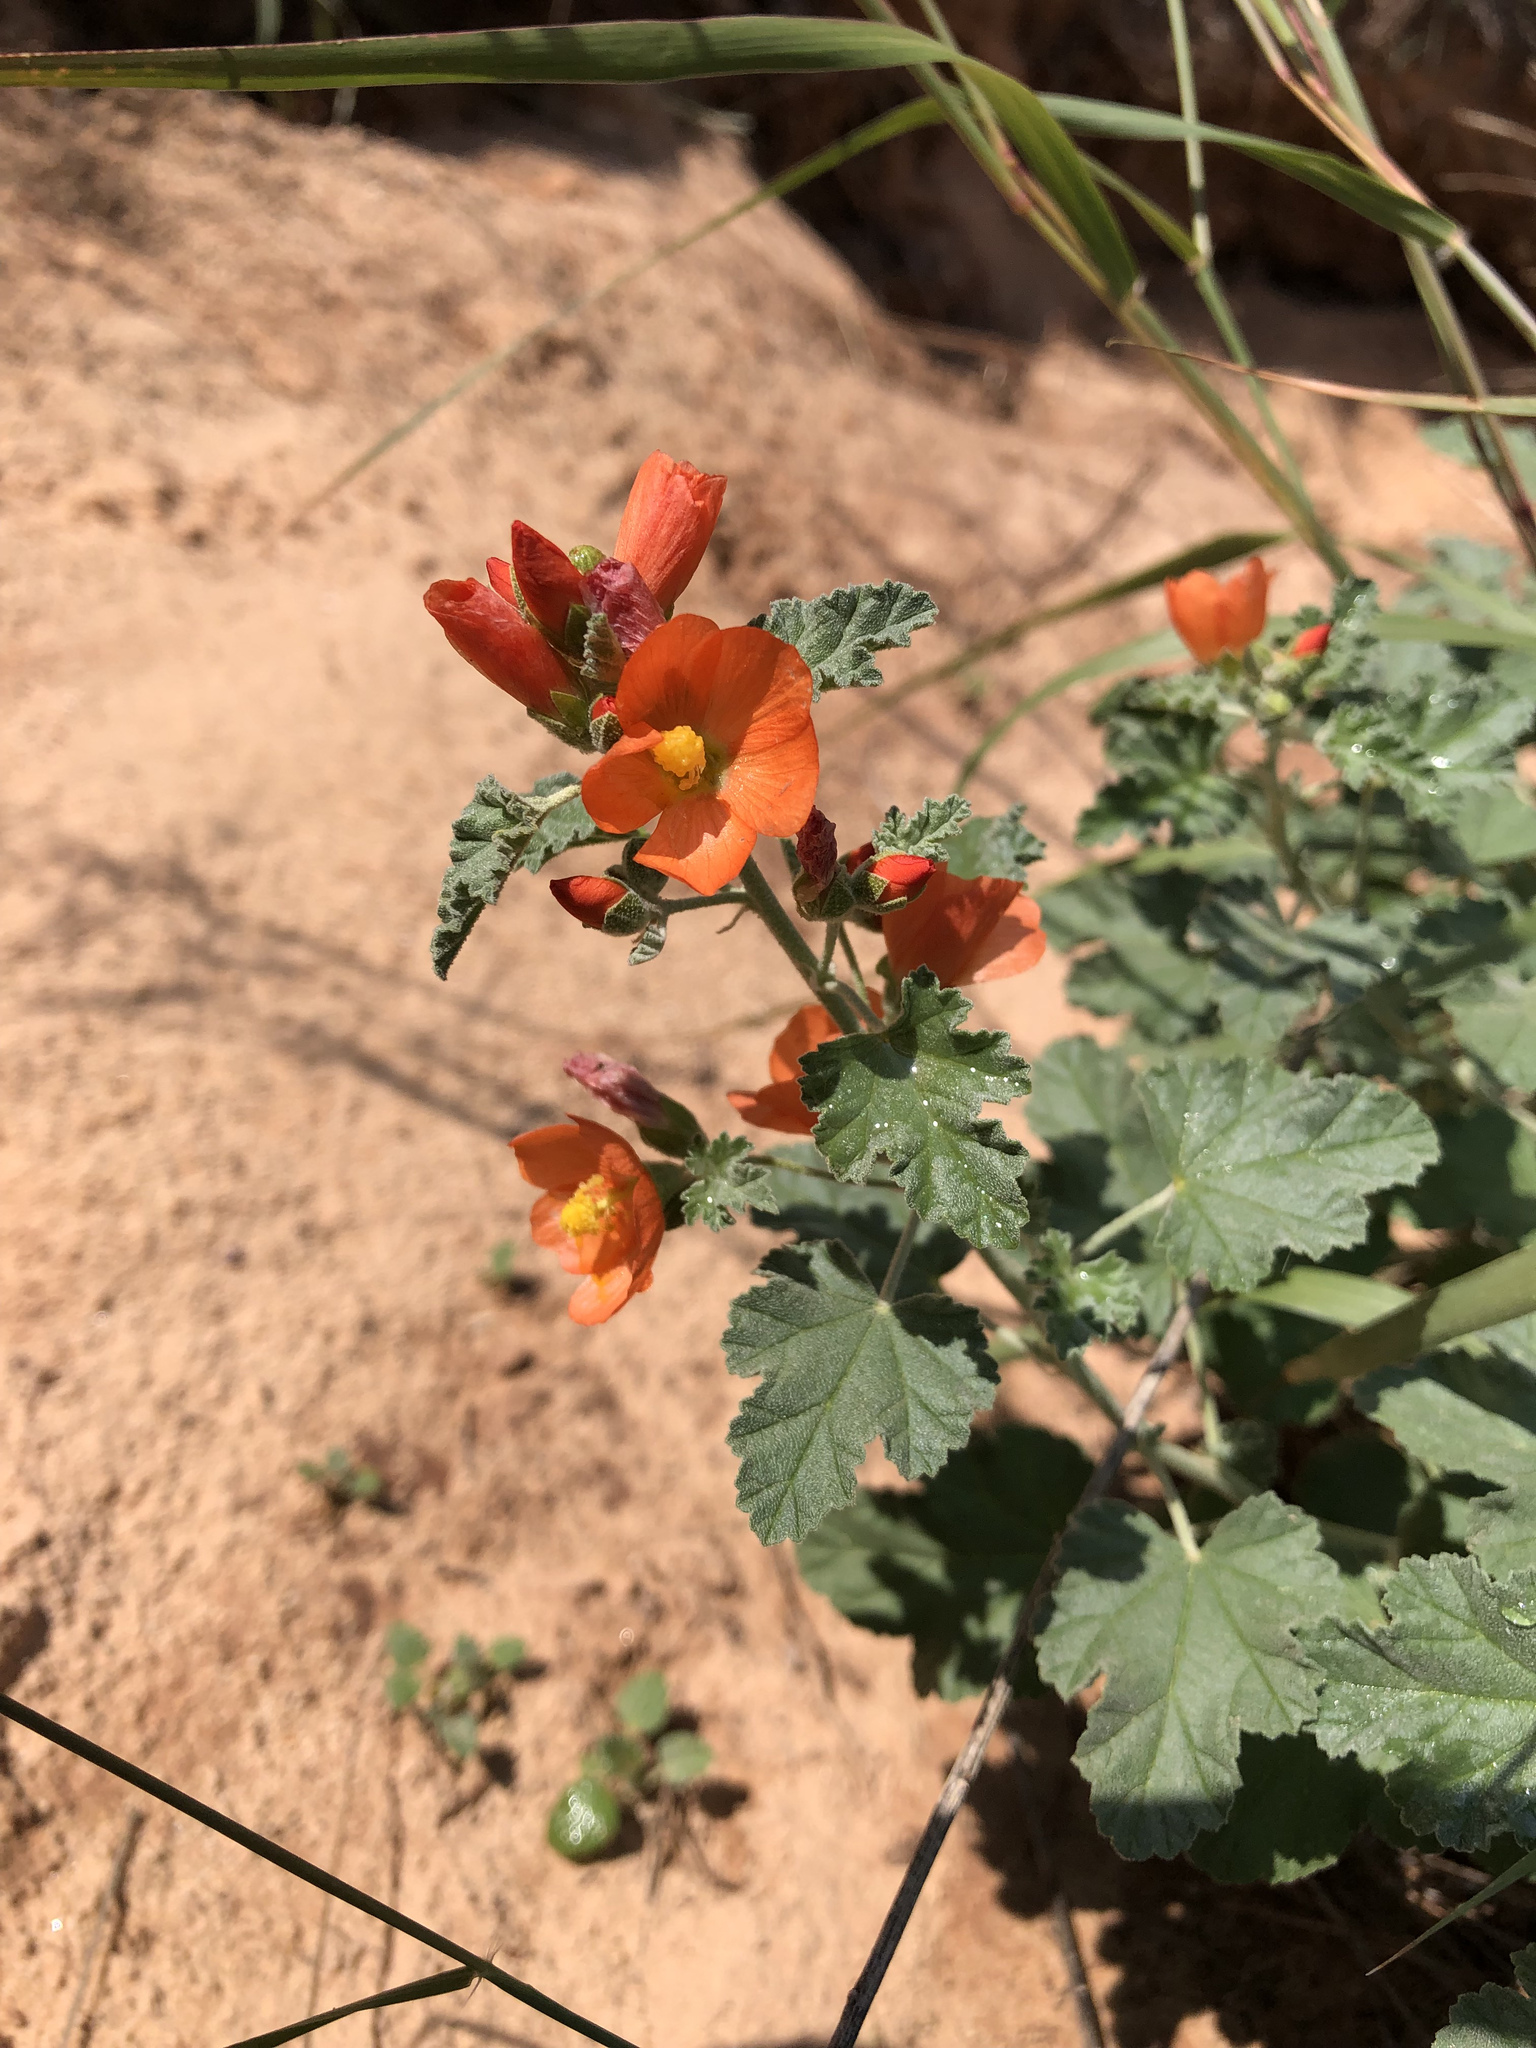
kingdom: Plantae
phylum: Tracheophyta
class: Magnoliopsida
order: Malvales
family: Malvaceae
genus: Sphaeralcea
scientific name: Sphaeralcea parvifolia
